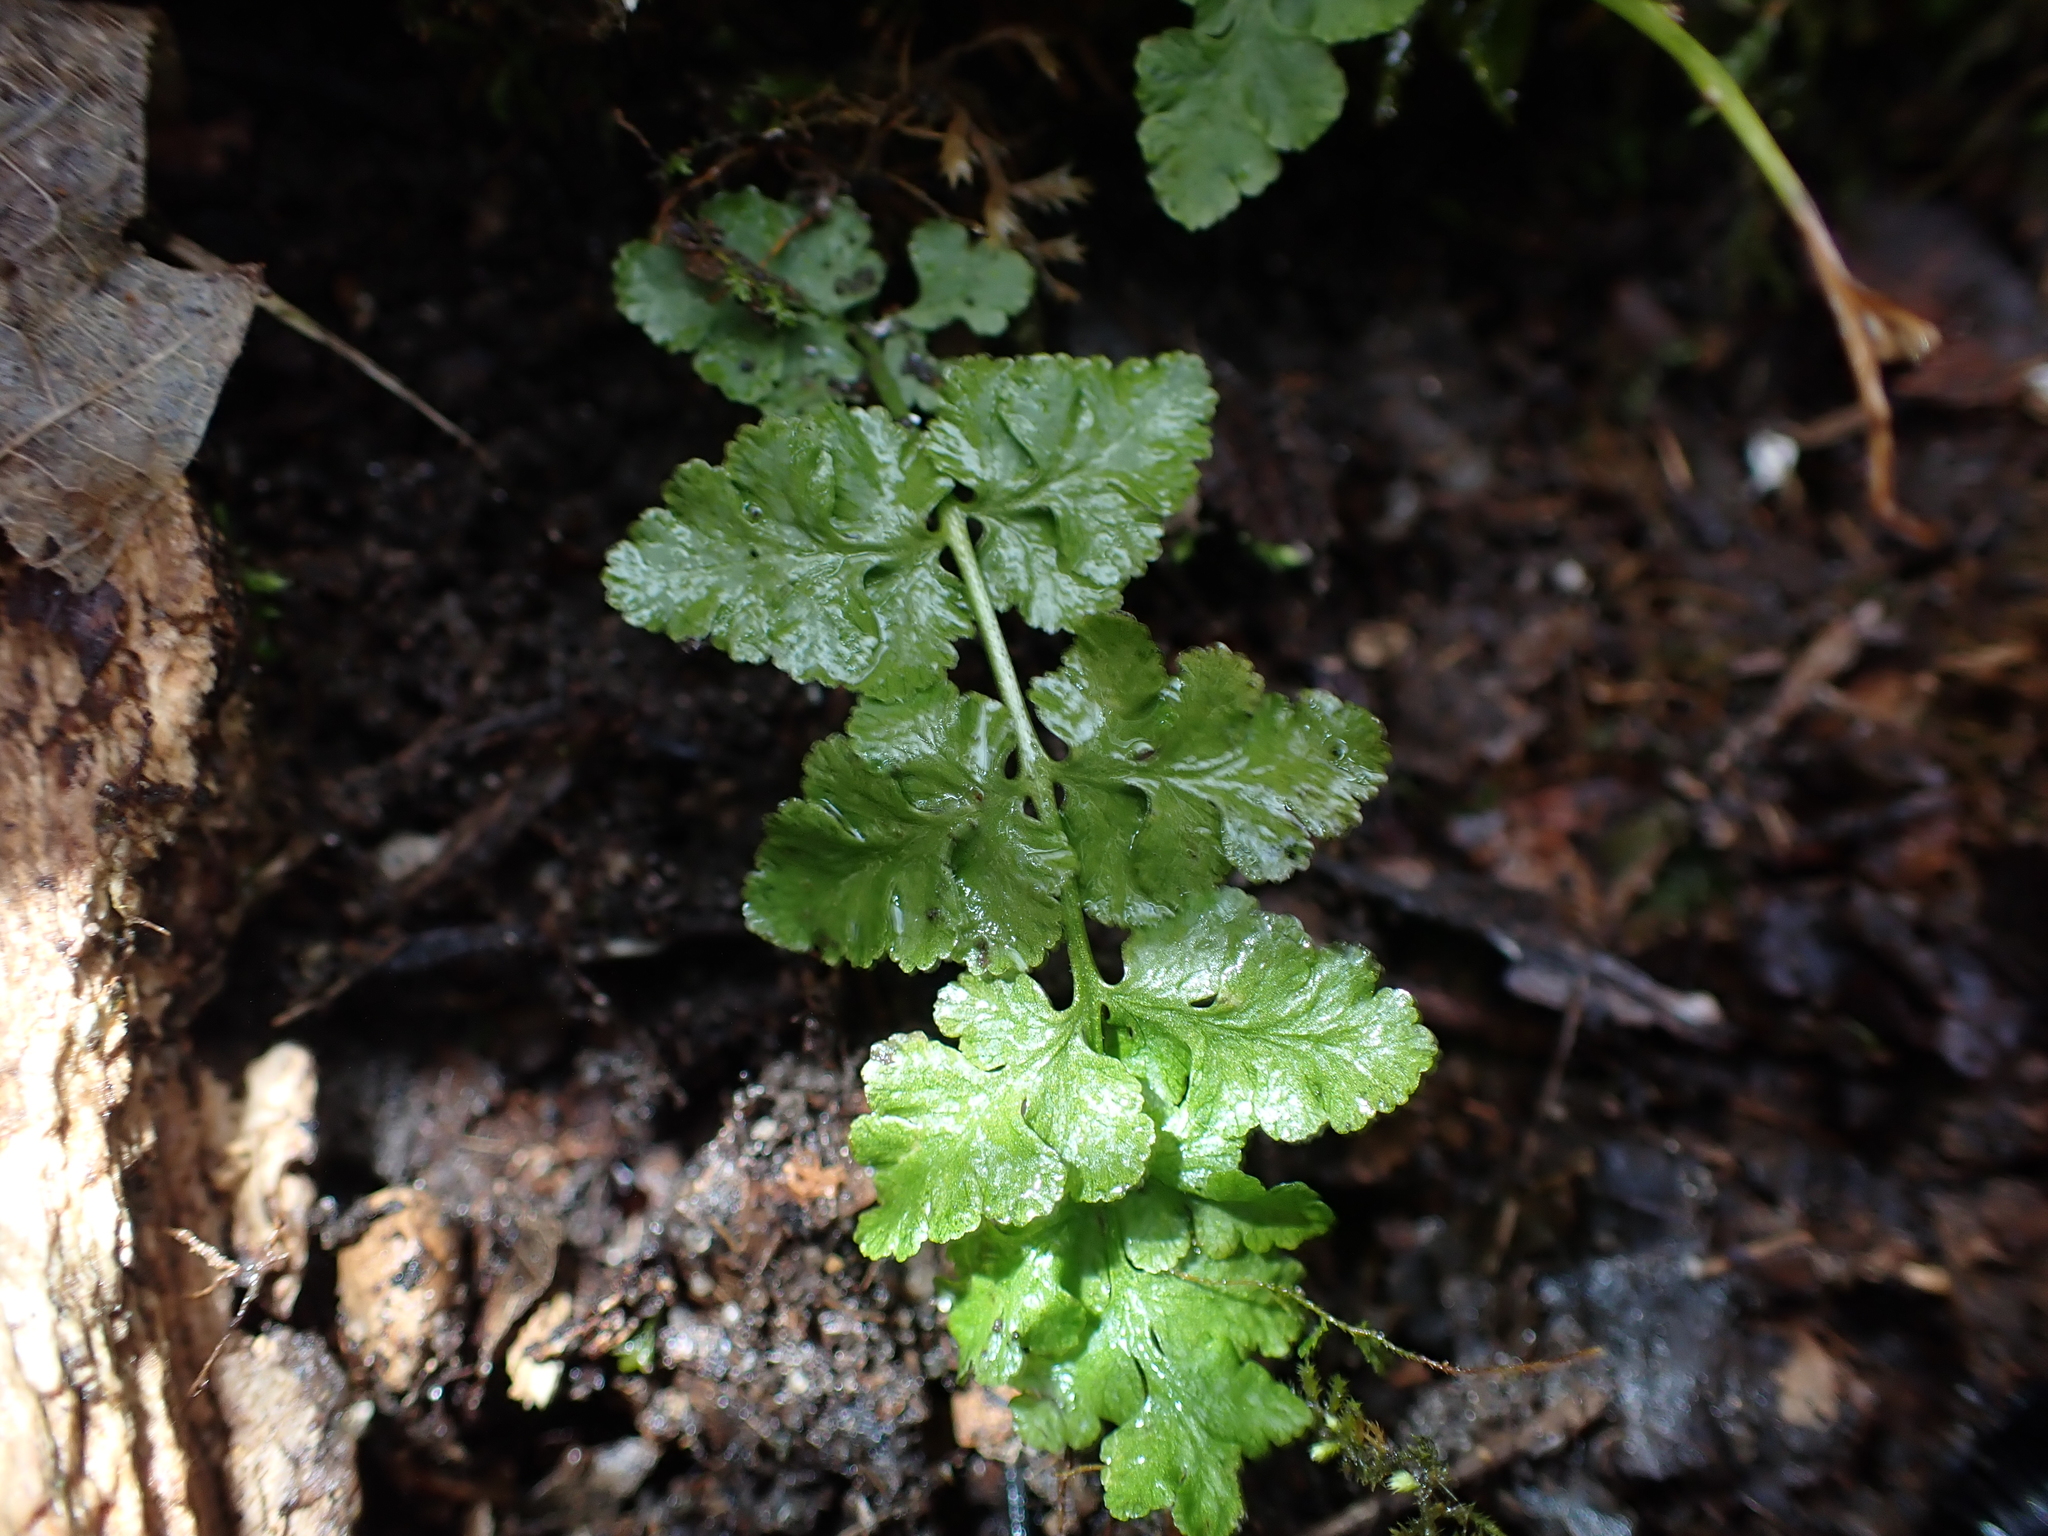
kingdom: Plantae
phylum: Tracheophyta
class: Polypodiopsida
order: Polypodiales
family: Woodsiaceae
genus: Physematium
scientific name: Physematium obtusum
